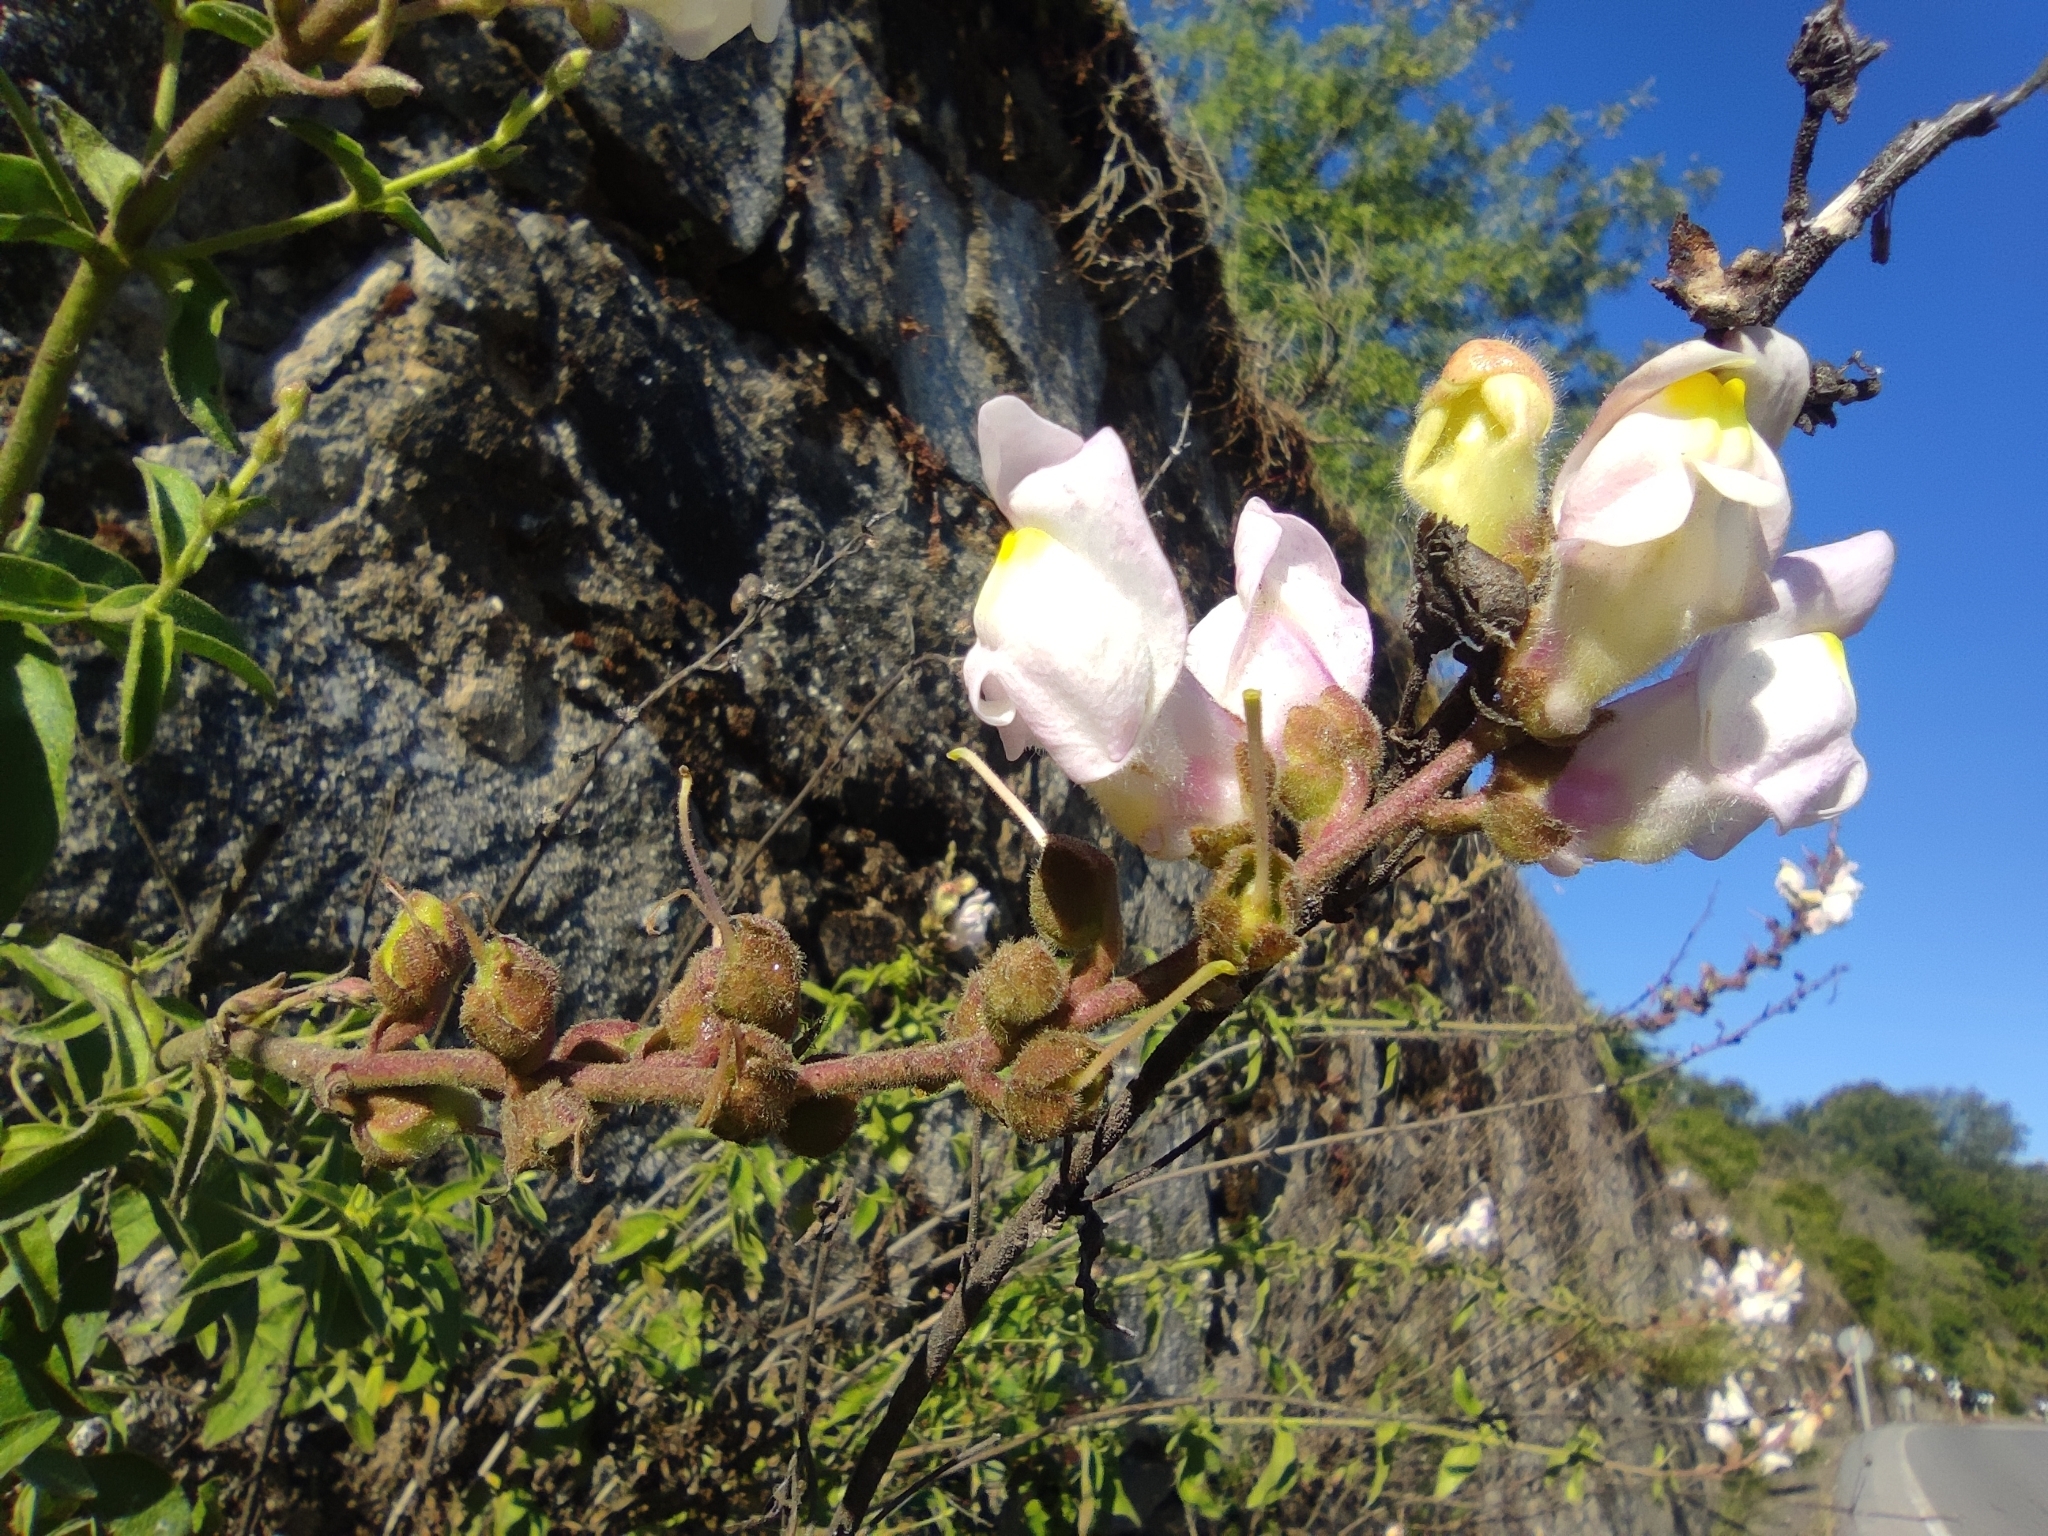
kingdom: Plantae
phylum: Tracheophyta
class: Magnoliopsida
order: Lamiales
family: Plantaginaceae
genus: Antirrhinum
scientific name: Antirrhinum graniticum
